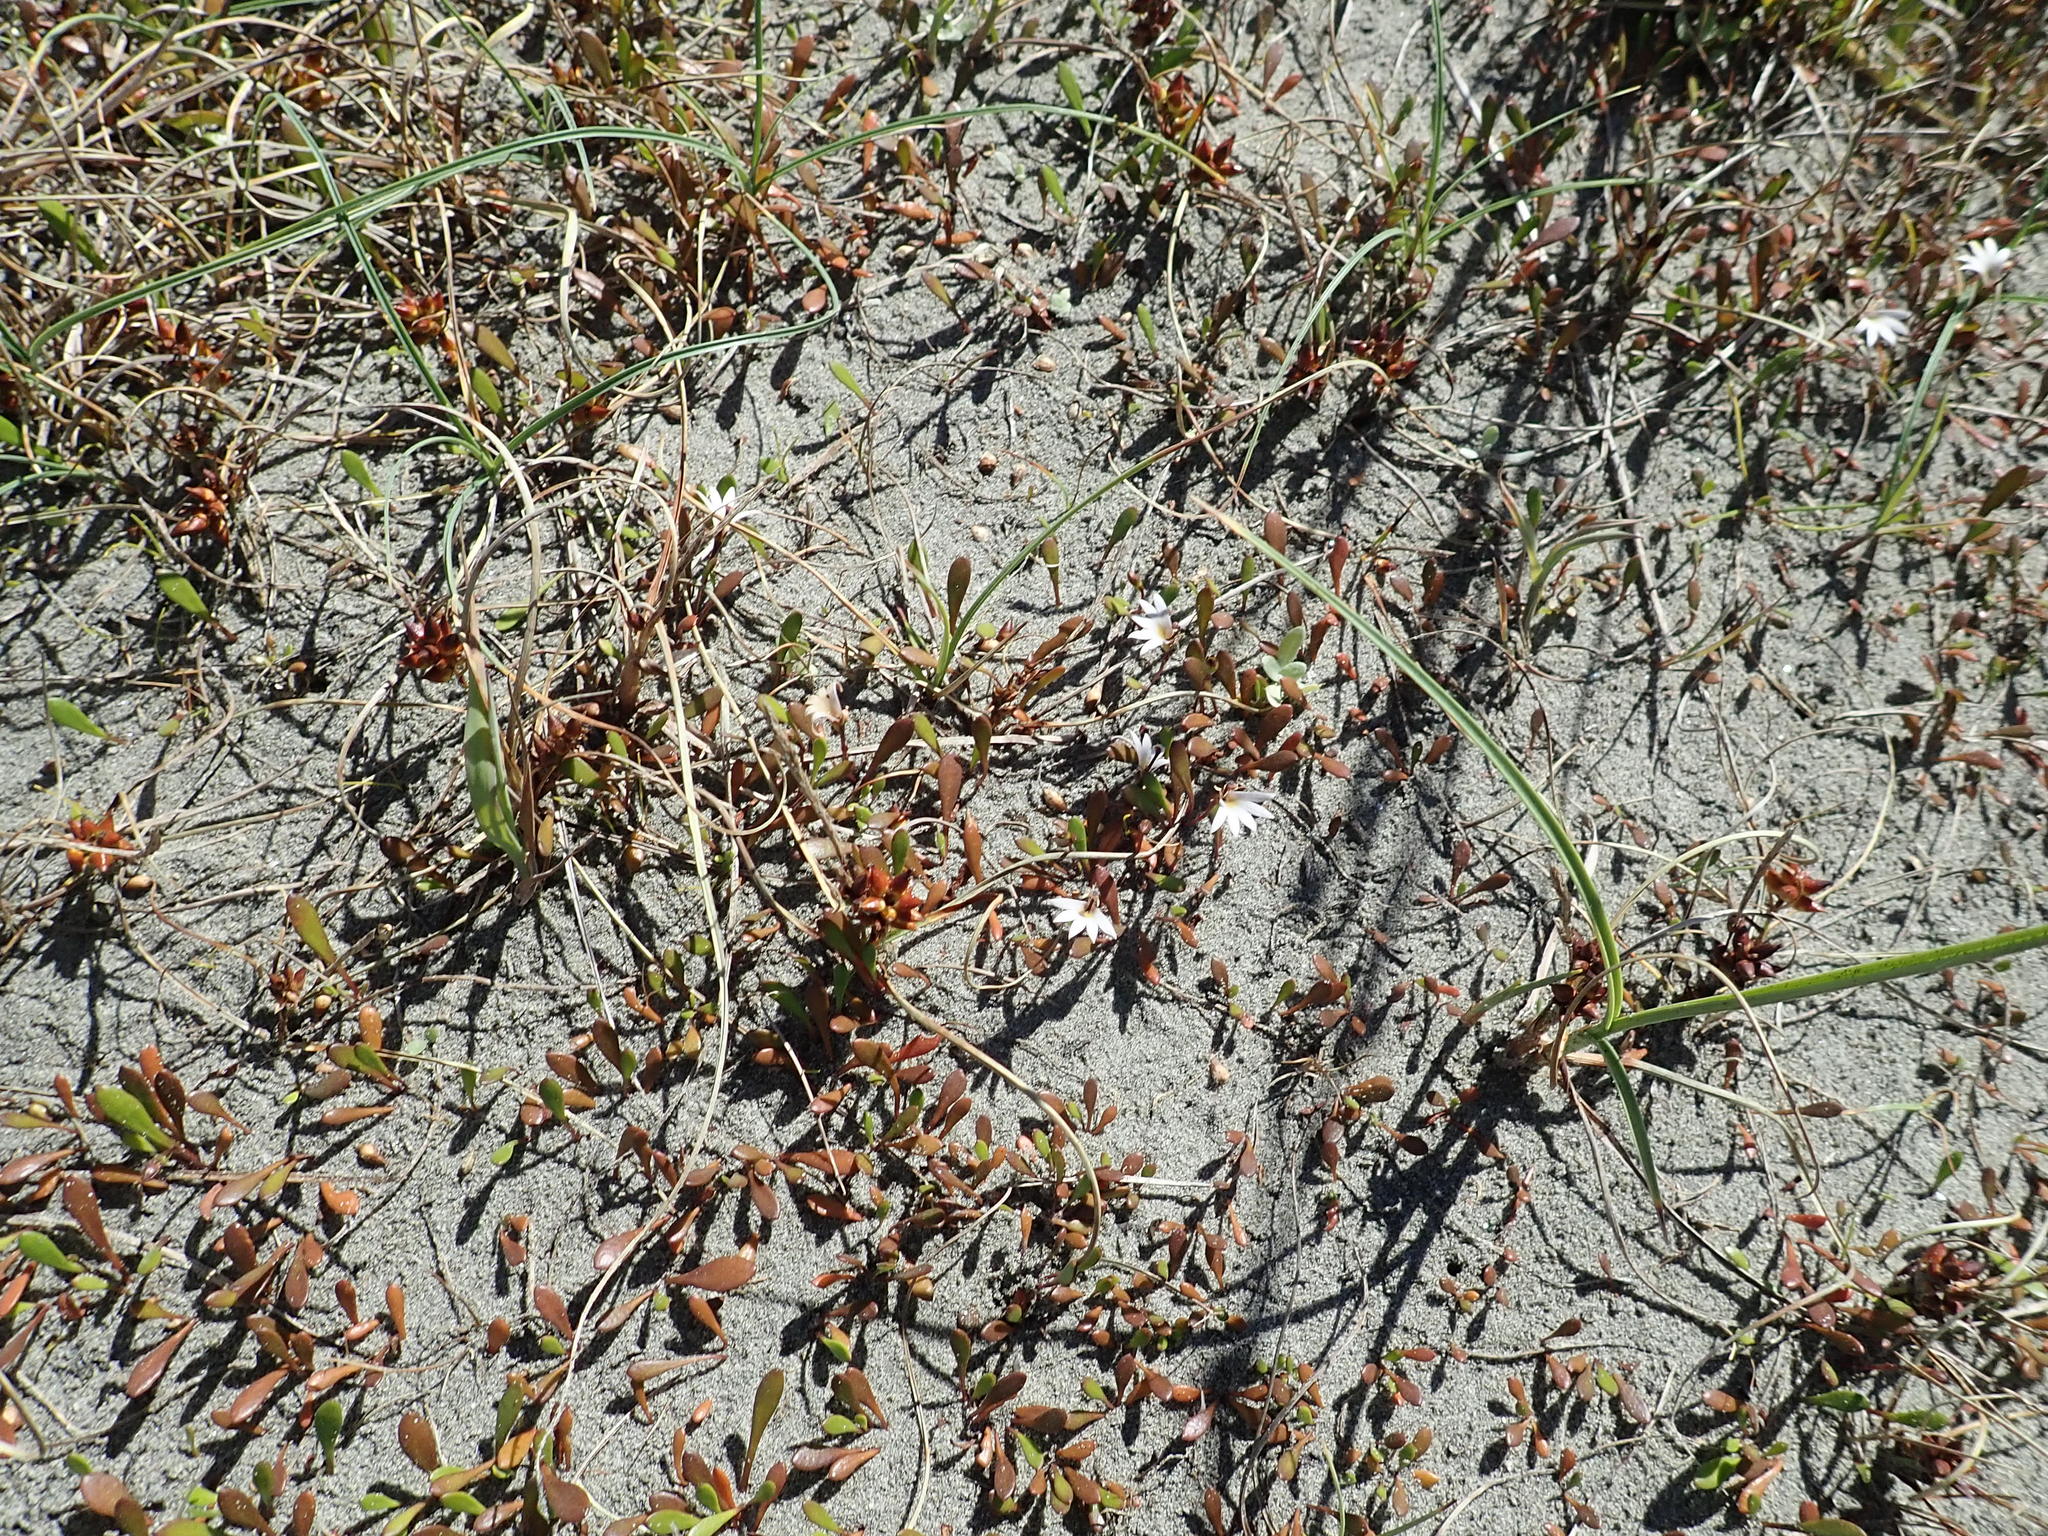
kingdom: Plantae
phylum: Tracheophyta
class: Magnoliopsida
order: Asterales
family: Goodeniaceae
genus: Goodenia
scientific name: Goodenia radicans
